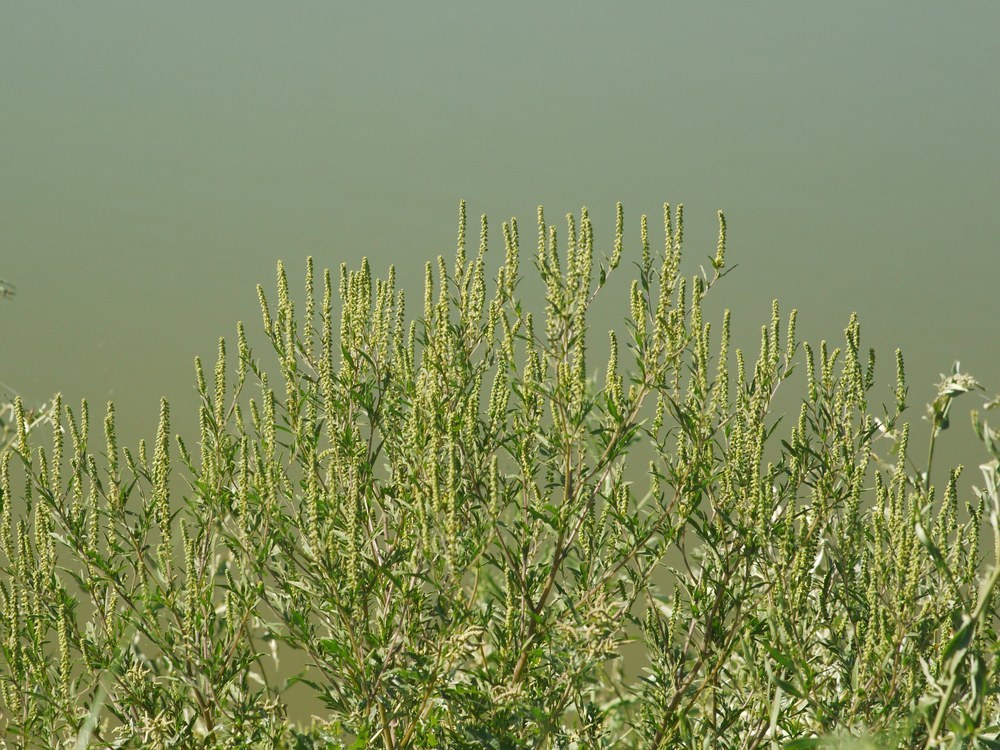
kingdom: Plantae
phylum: Tracheophyta
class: Magnoliopsida
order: Asterales
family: Asteraceae
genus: Ambrosia
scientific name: Ambrosia artemisiifolia
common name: Annual ragweed
